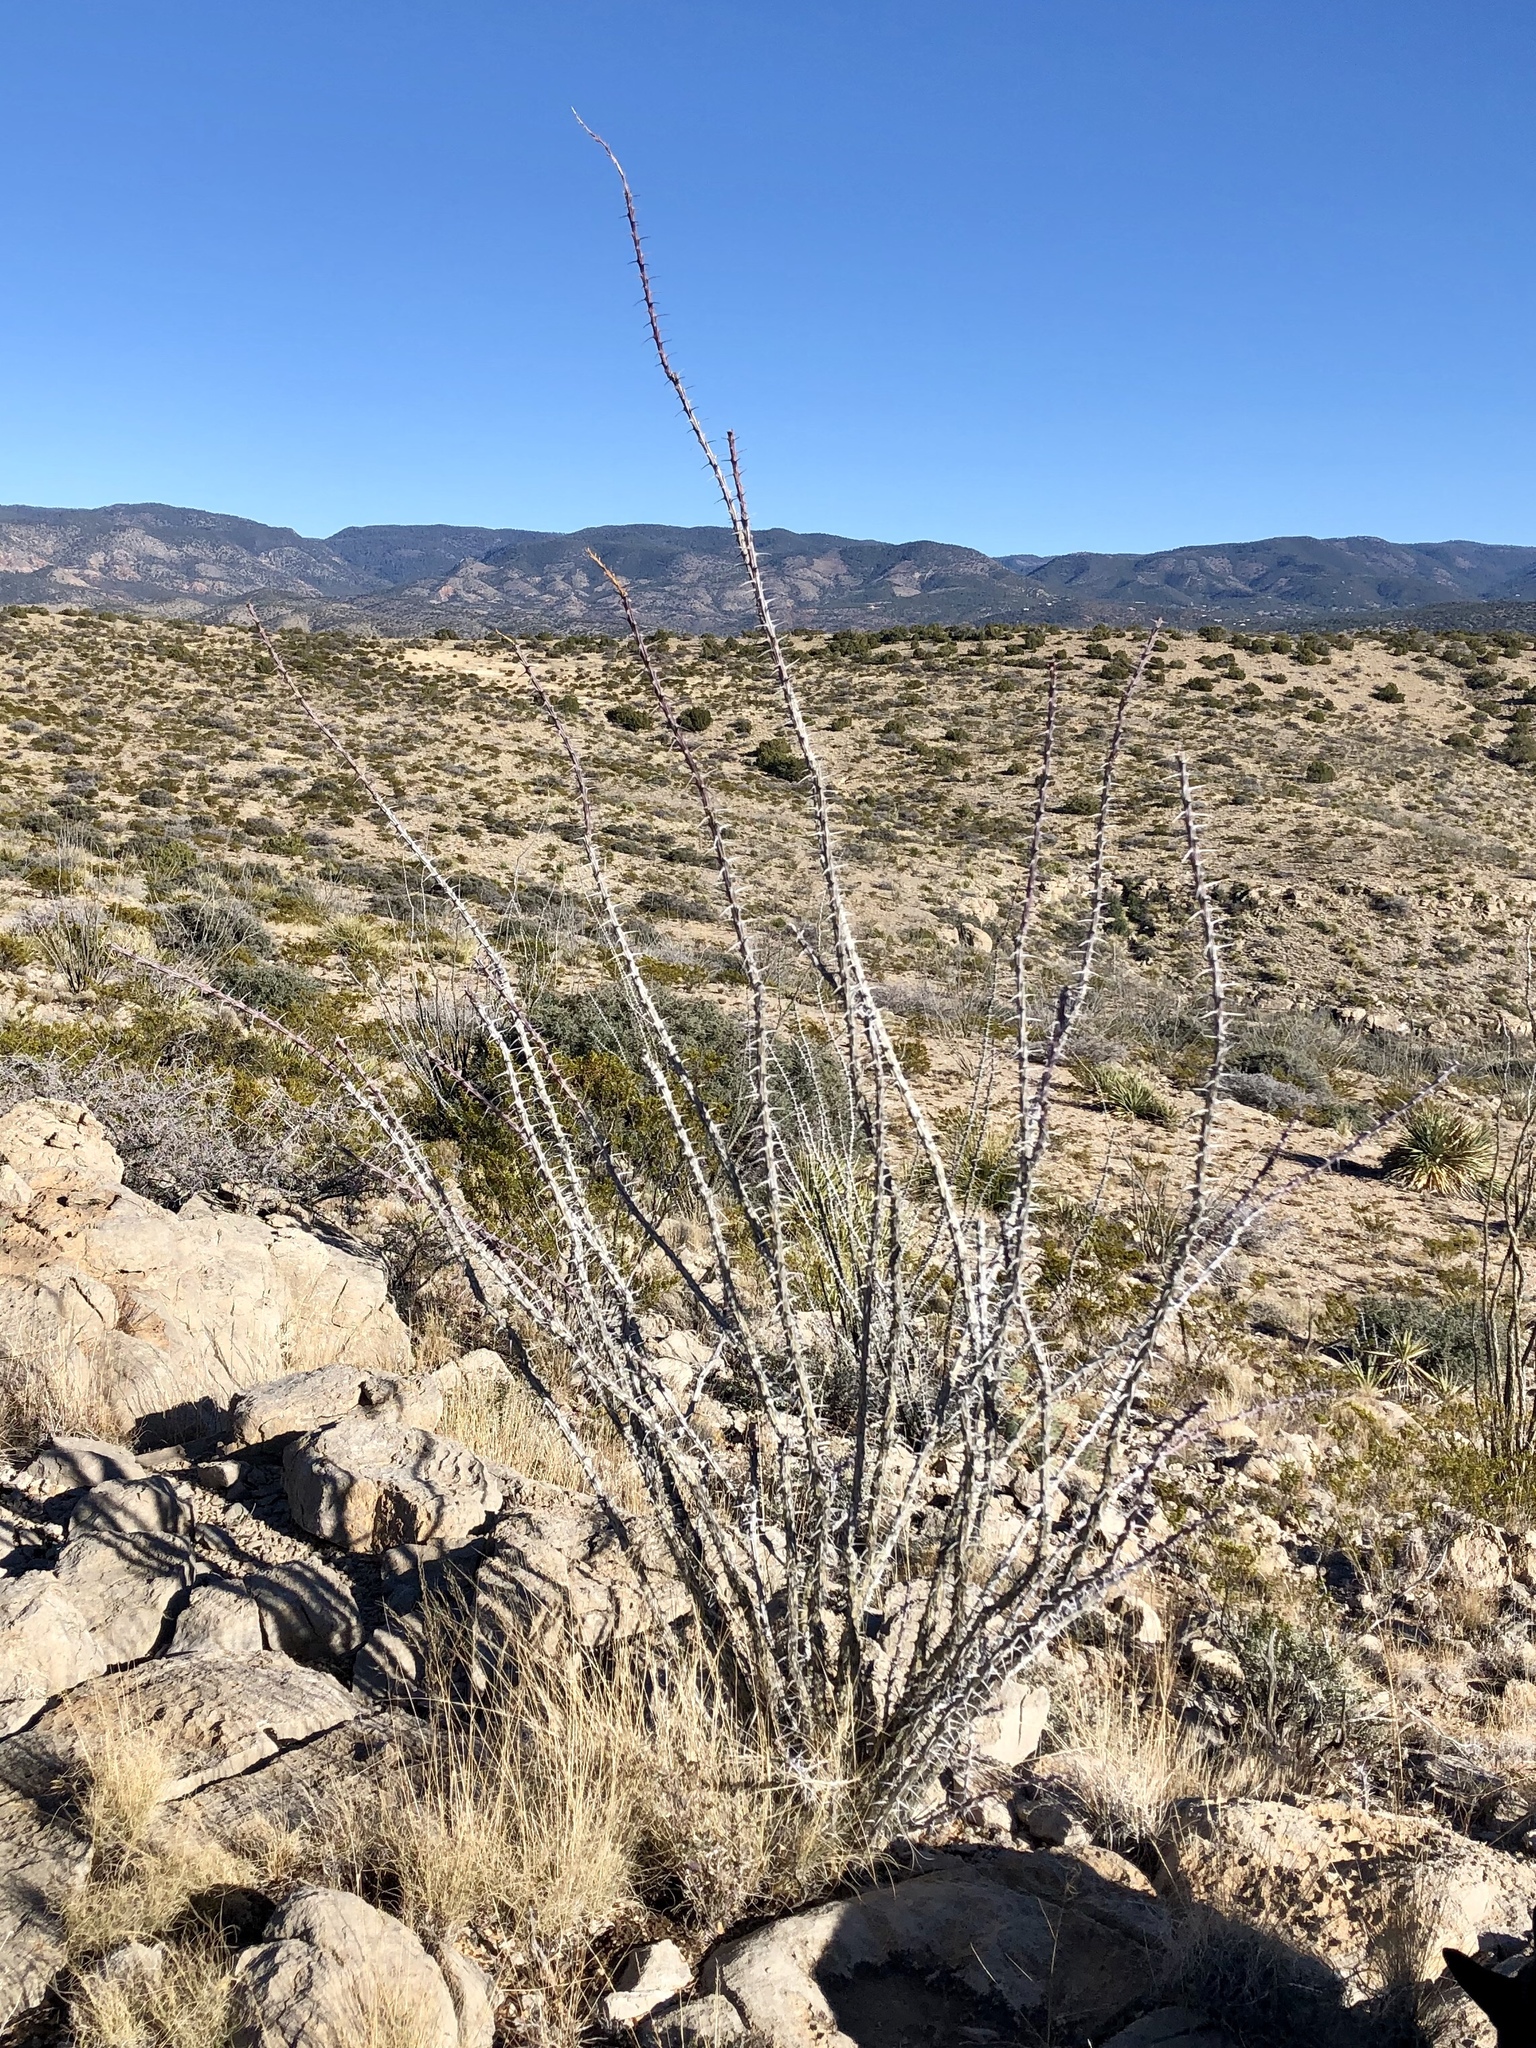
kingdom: Plantae
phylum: Tracheophyta
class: Magnoliopsida
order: Ericales
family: Fouquieriaceae
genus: Fouquieria
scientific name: Fouquieria splendens
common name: Vine-cactus
